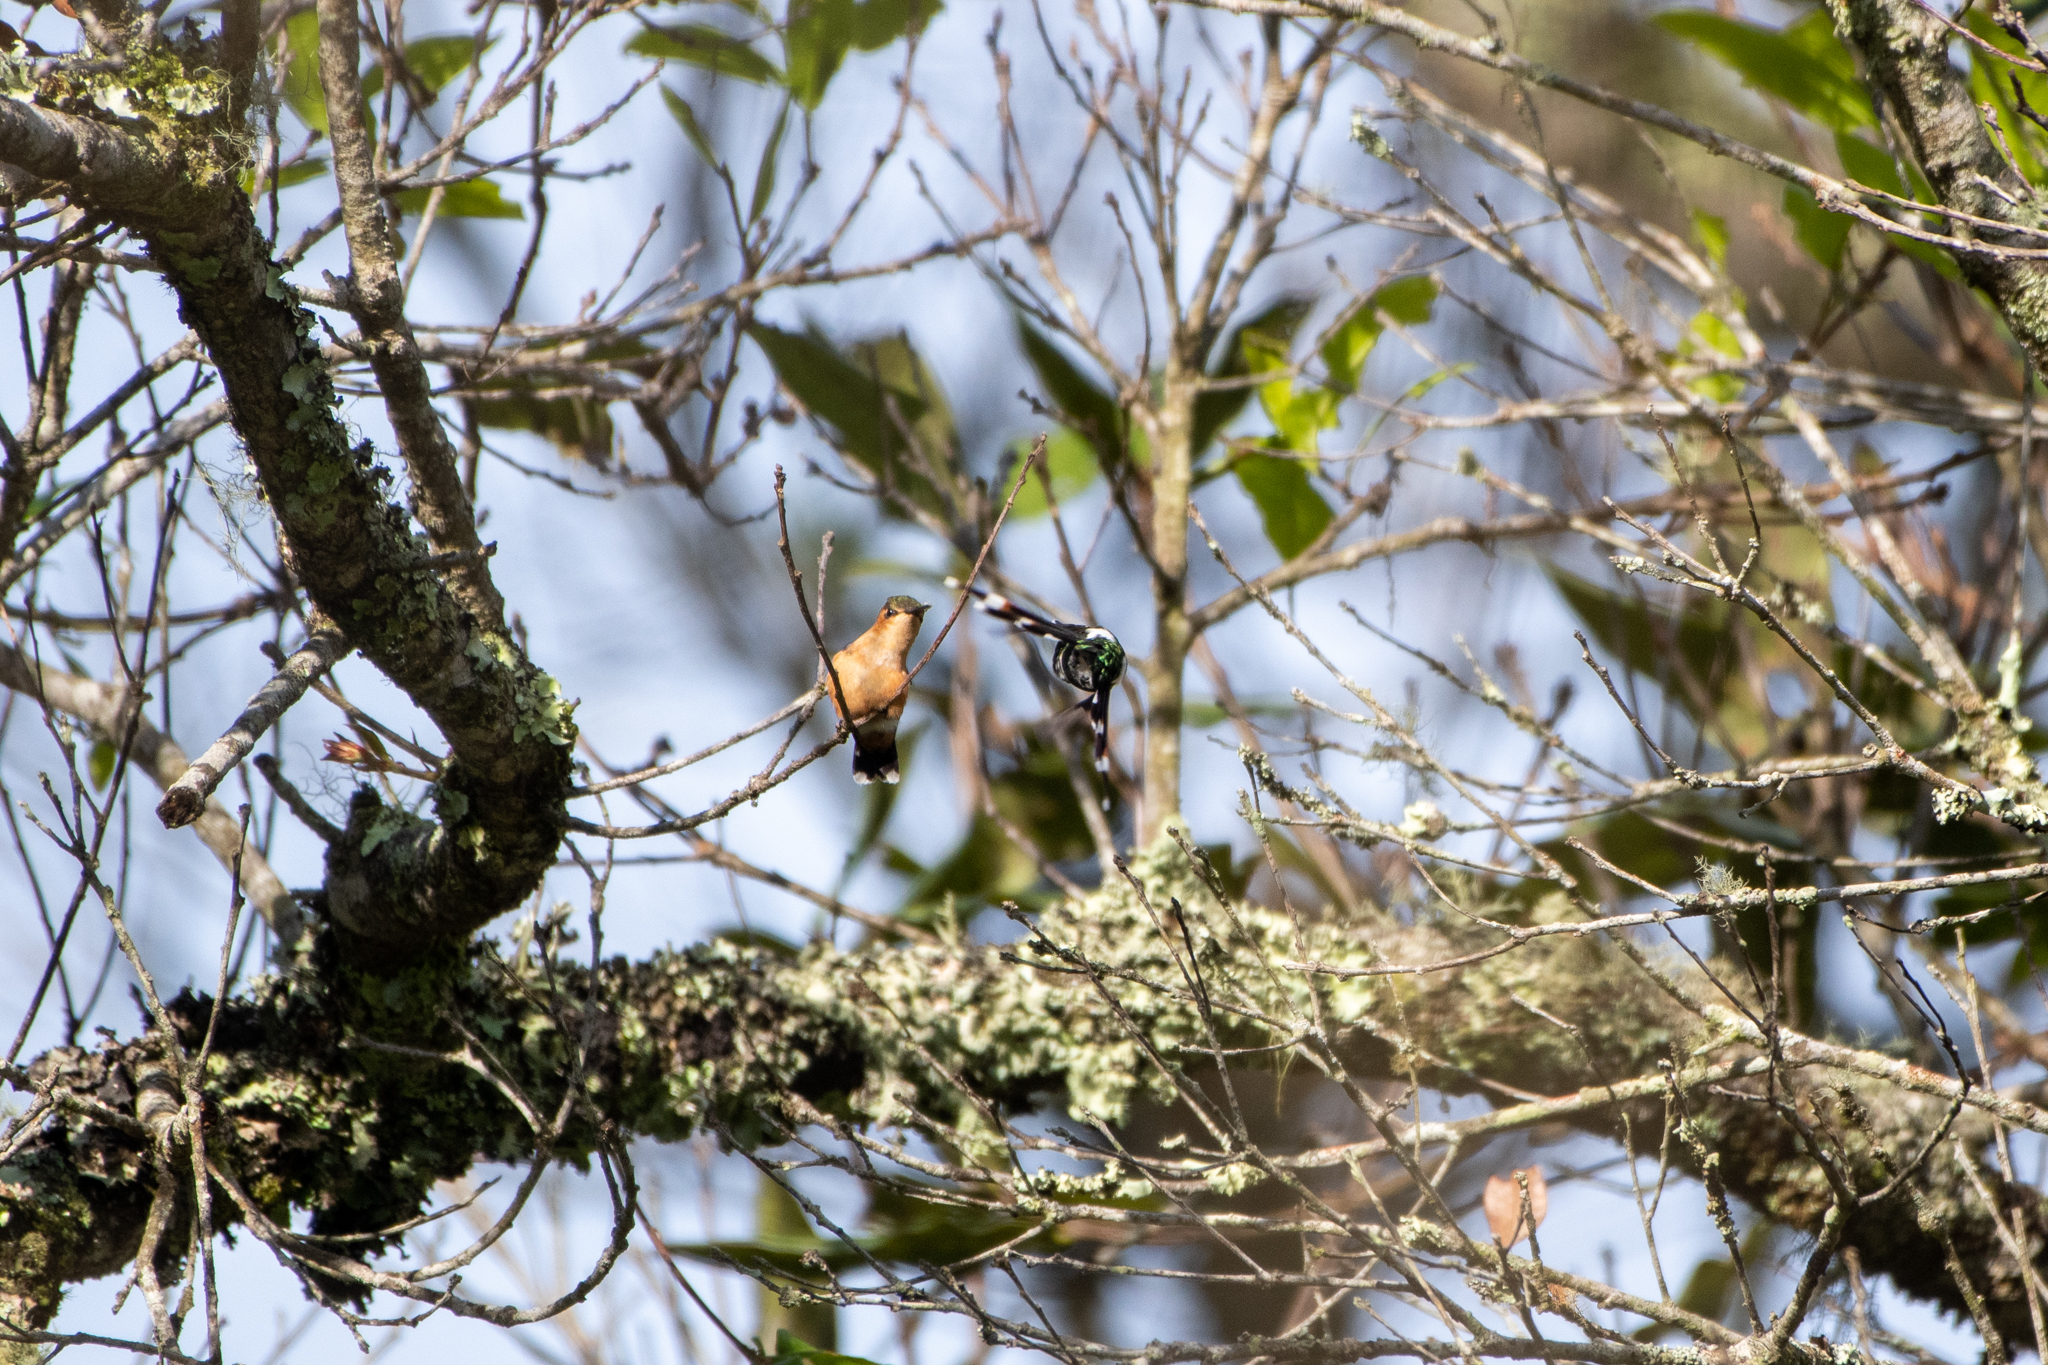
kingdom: Animalia
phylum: Chordata
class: Aves
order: Apodiformes
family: Trochilidae
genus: Tilmatura
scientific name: Tilmatura dupontii
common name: Sparkling-tailed woodstar
